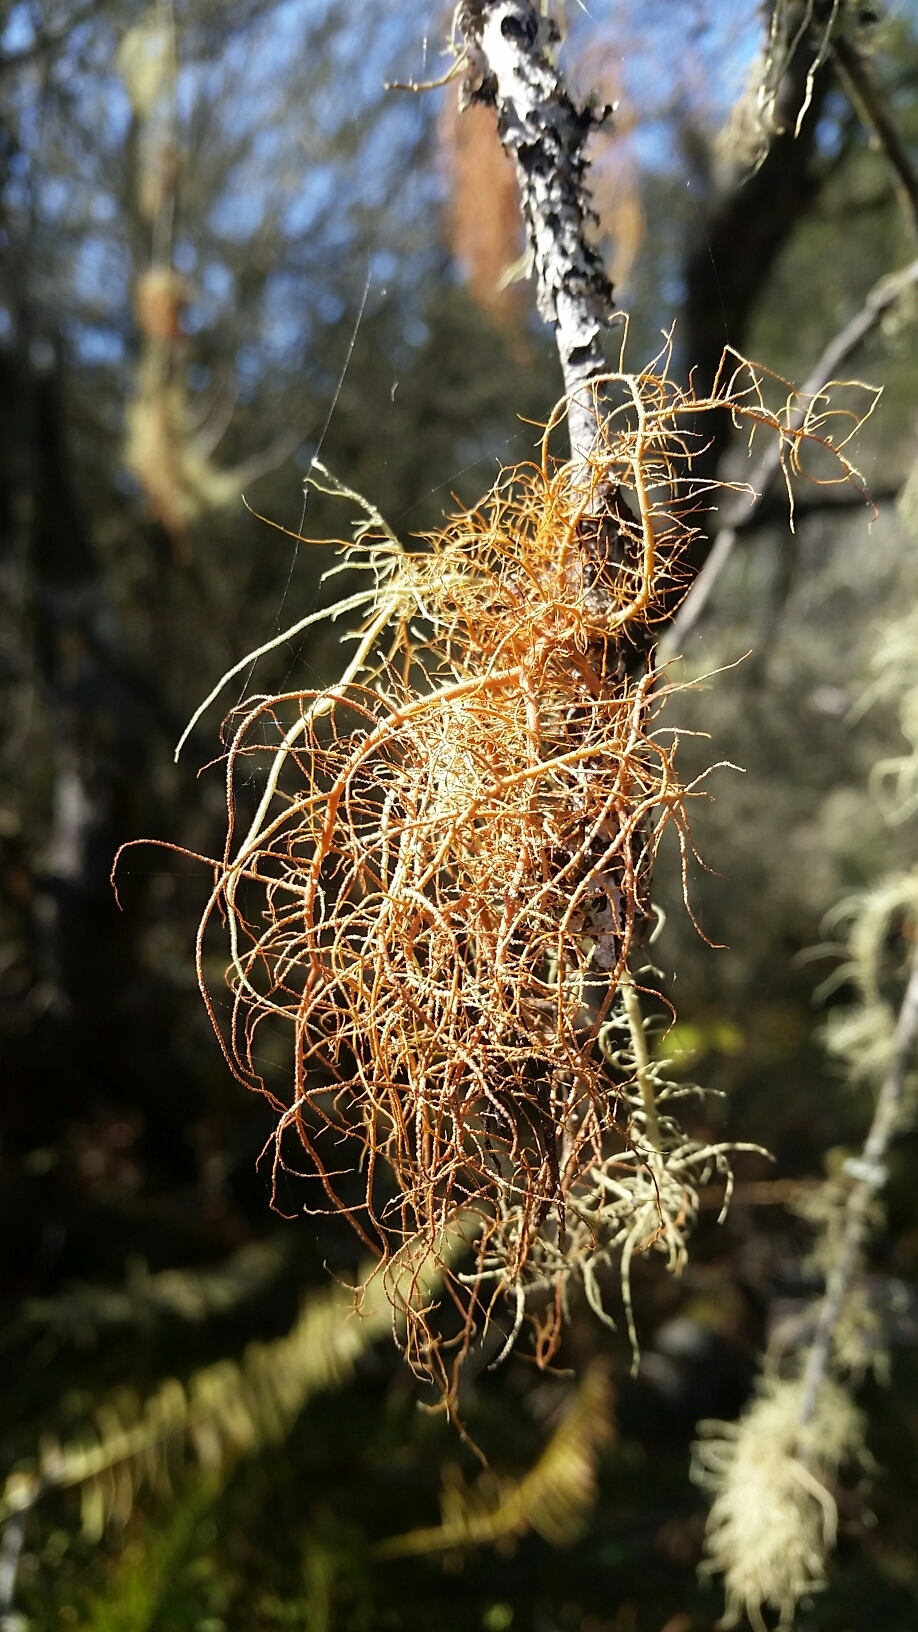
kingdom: Fungi
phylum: Ascomycota
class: Lecanoromycetes
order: Lecanorales
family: Parmeliaceae
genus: Usnea
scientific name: Usnea rubicunda
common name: Red beard lichen
